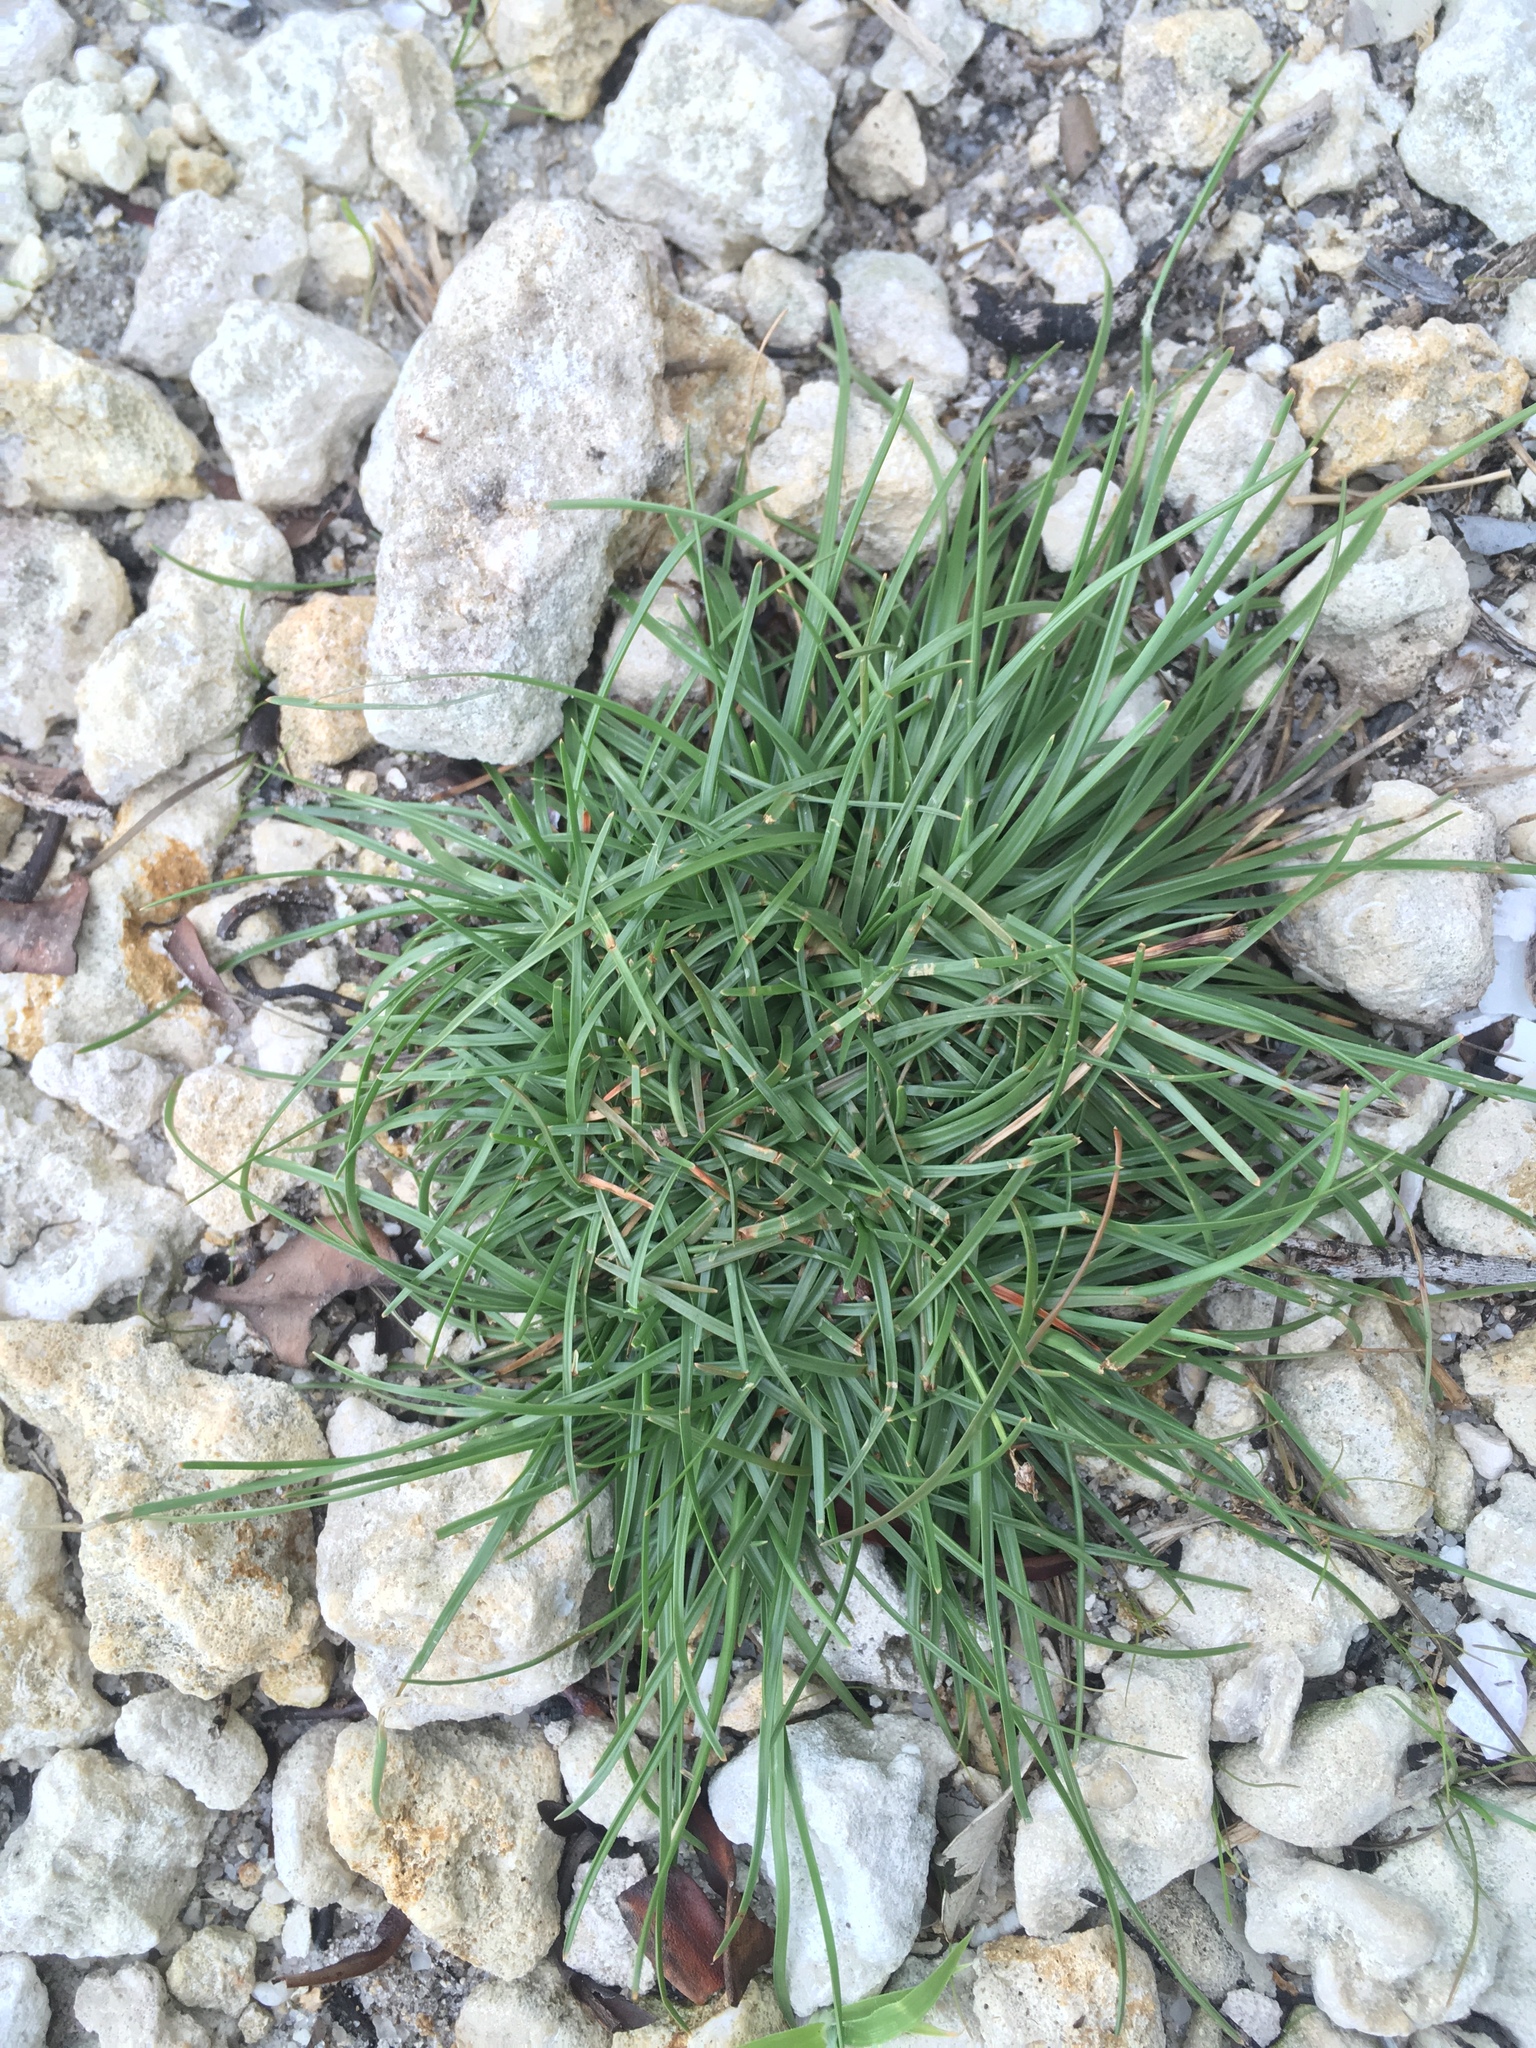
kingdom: Plantae
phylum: Tracheophyta
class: Liliopsida
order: Poales
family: Cyperaceae
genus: Fimbristylis
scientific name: Fimbristylis cymosa
